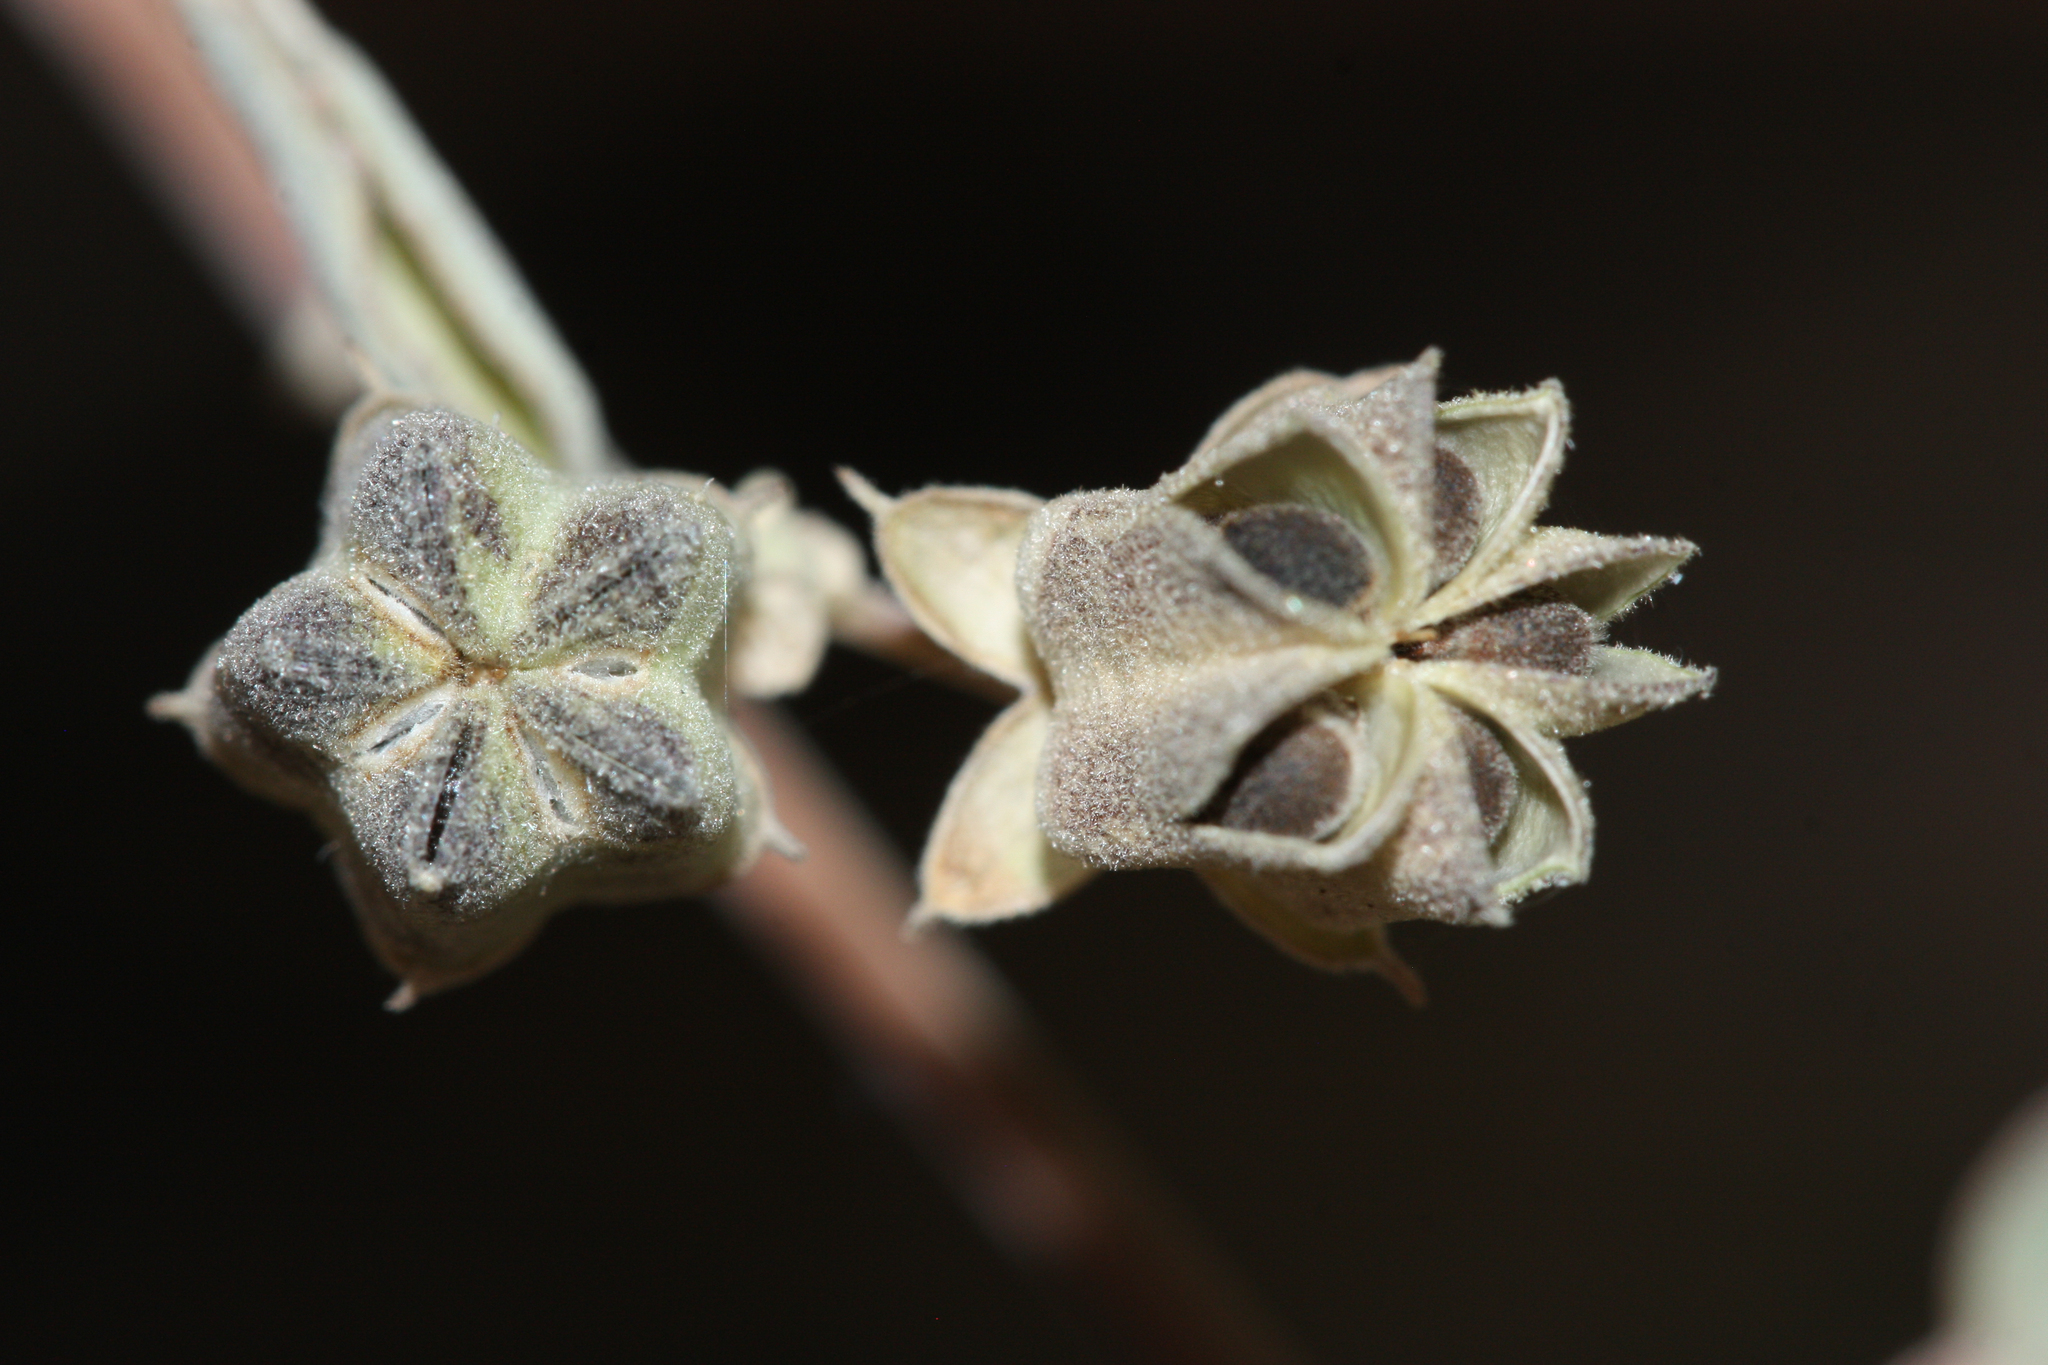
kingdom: Plantae
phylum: Tracheophyta
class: Magnoliopsida
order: Malvales
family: Malvaceae
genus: Abutilon
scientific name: Abutilon incanum
